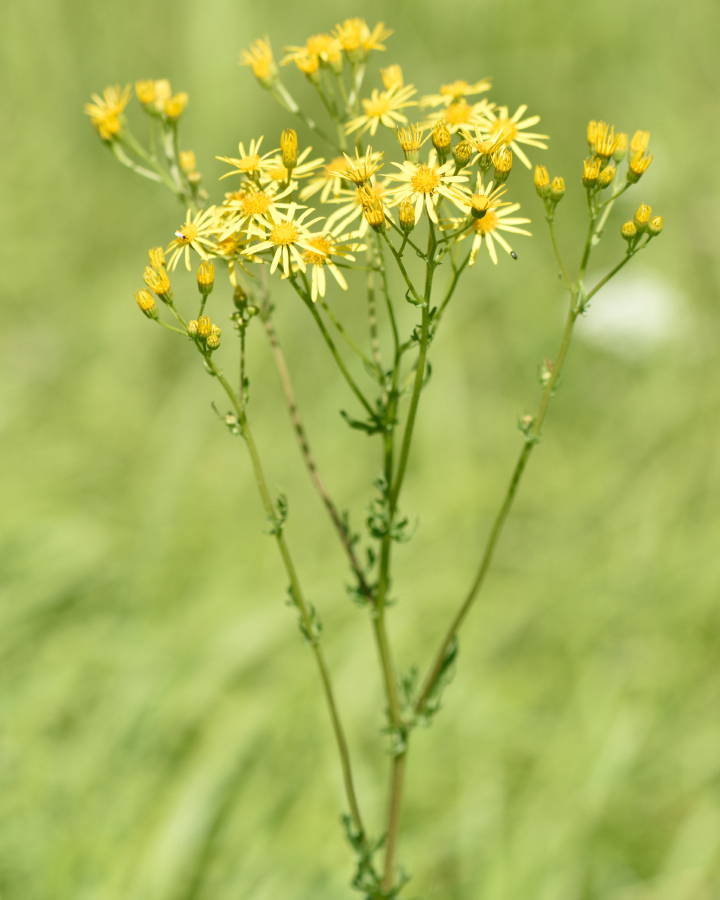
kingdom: Plantae
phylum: Tracheophyta
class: Magnoliopsida
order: Asterales
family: Asteraceae
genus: Jacobaea
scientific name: Jacobaea vulgaris
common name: Stinking willie
